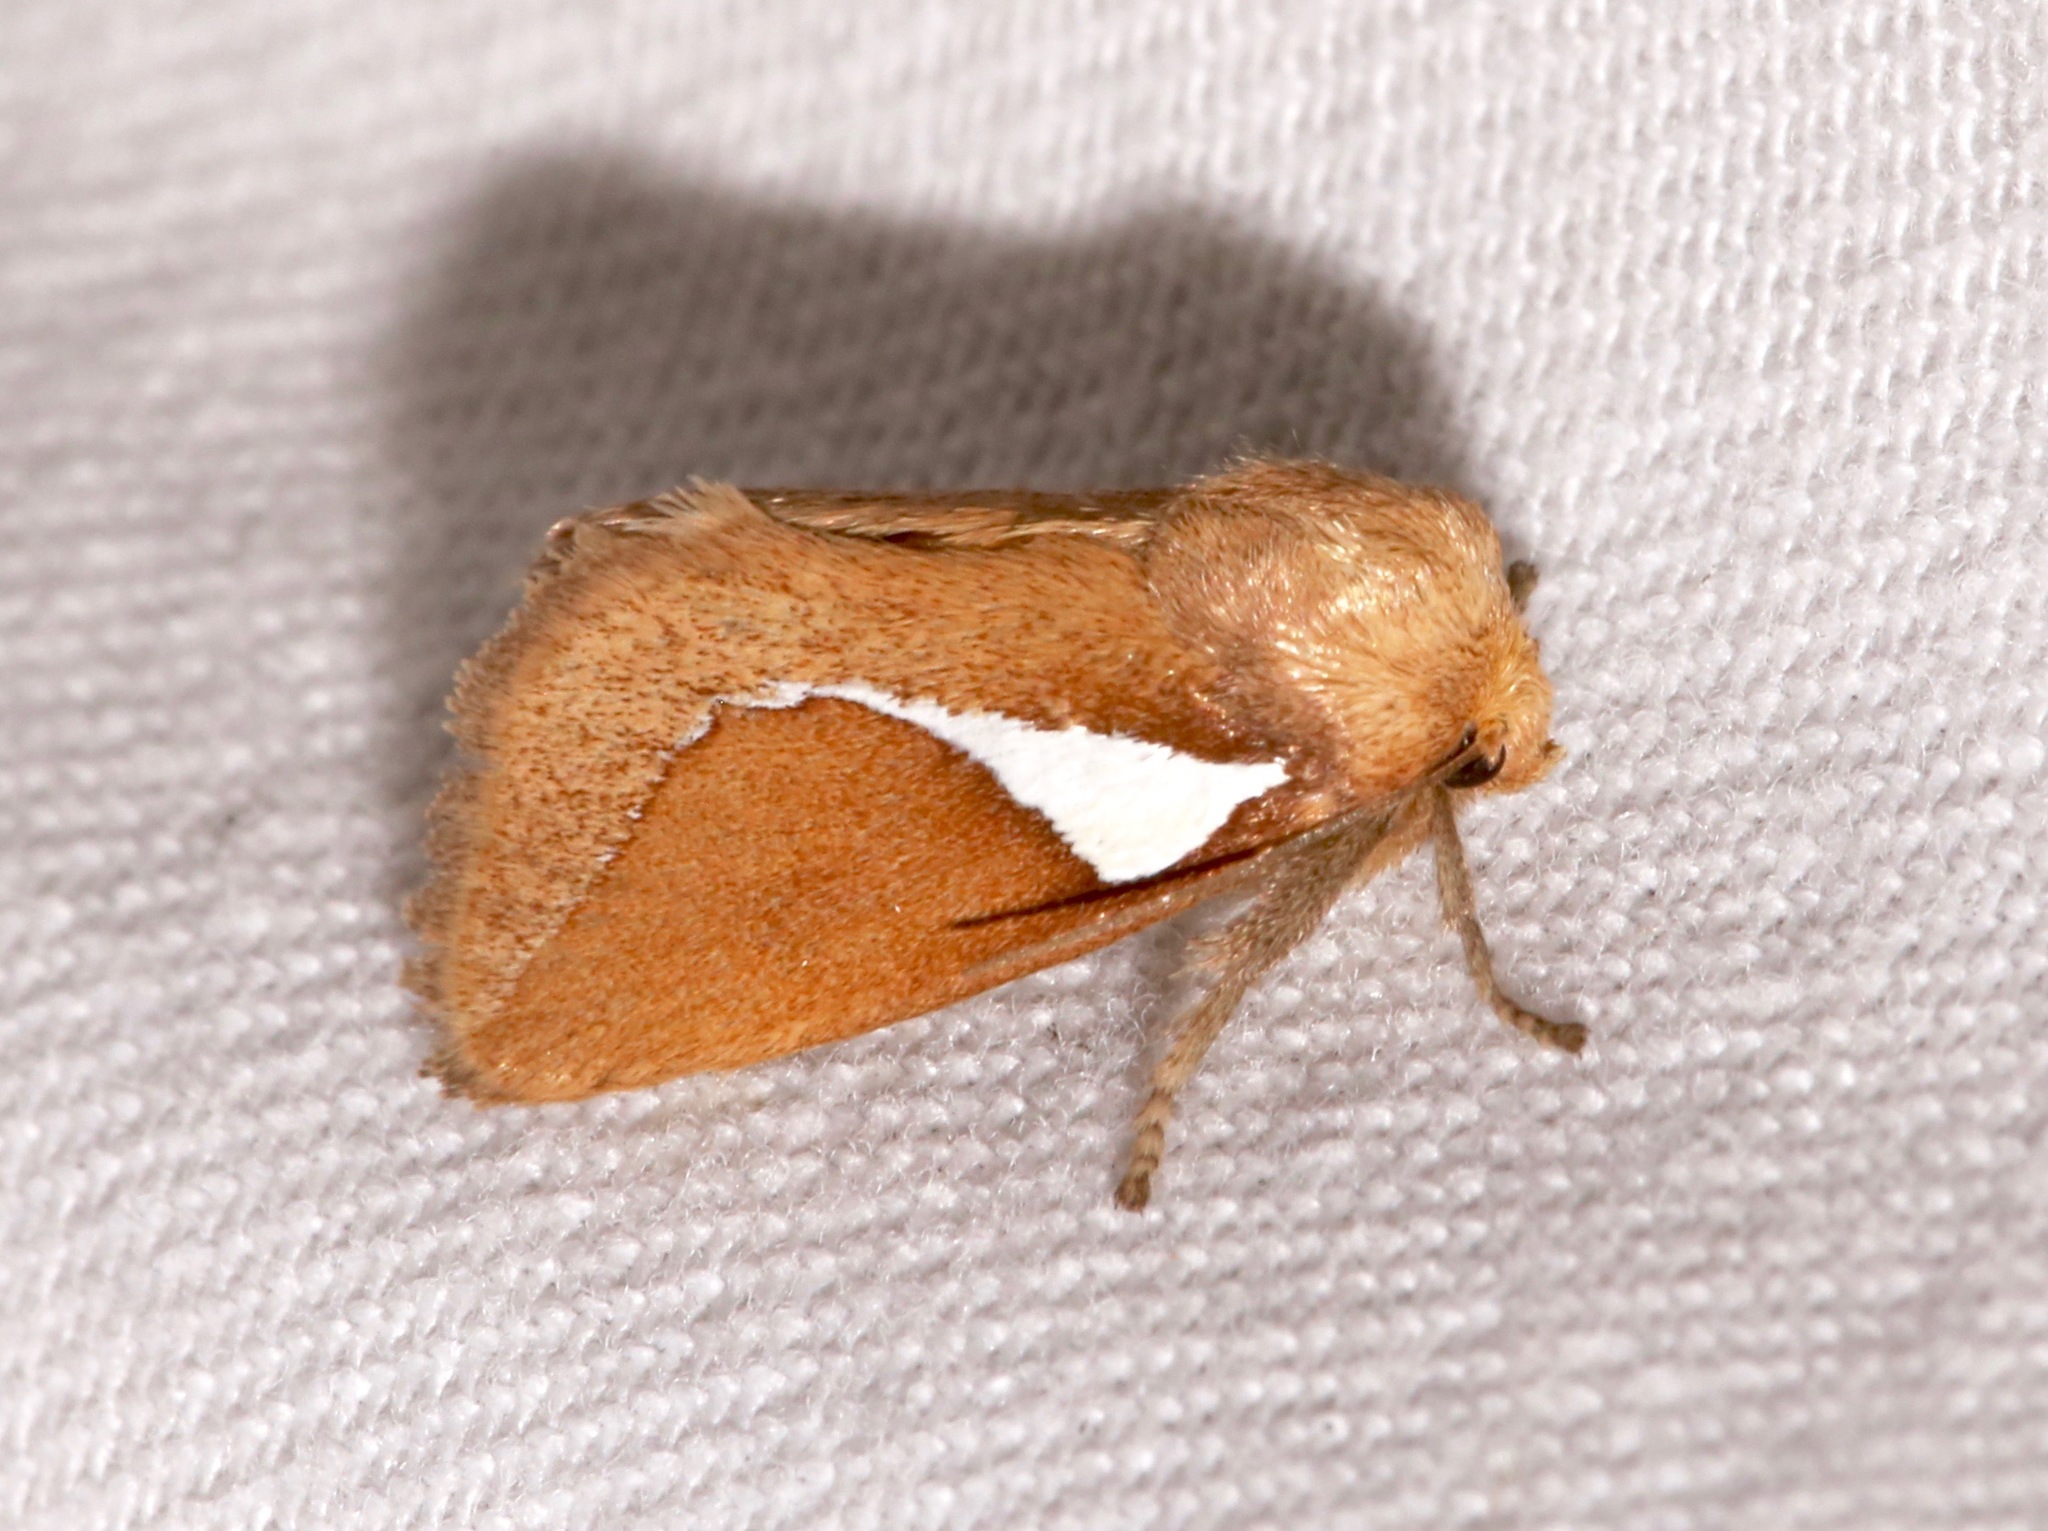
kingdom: Animalia
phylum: Arthropoda
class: Insecta
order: Lepidoptera
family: Limacodidae
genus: Prolimacodes
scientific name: Prolimacodes trigona
